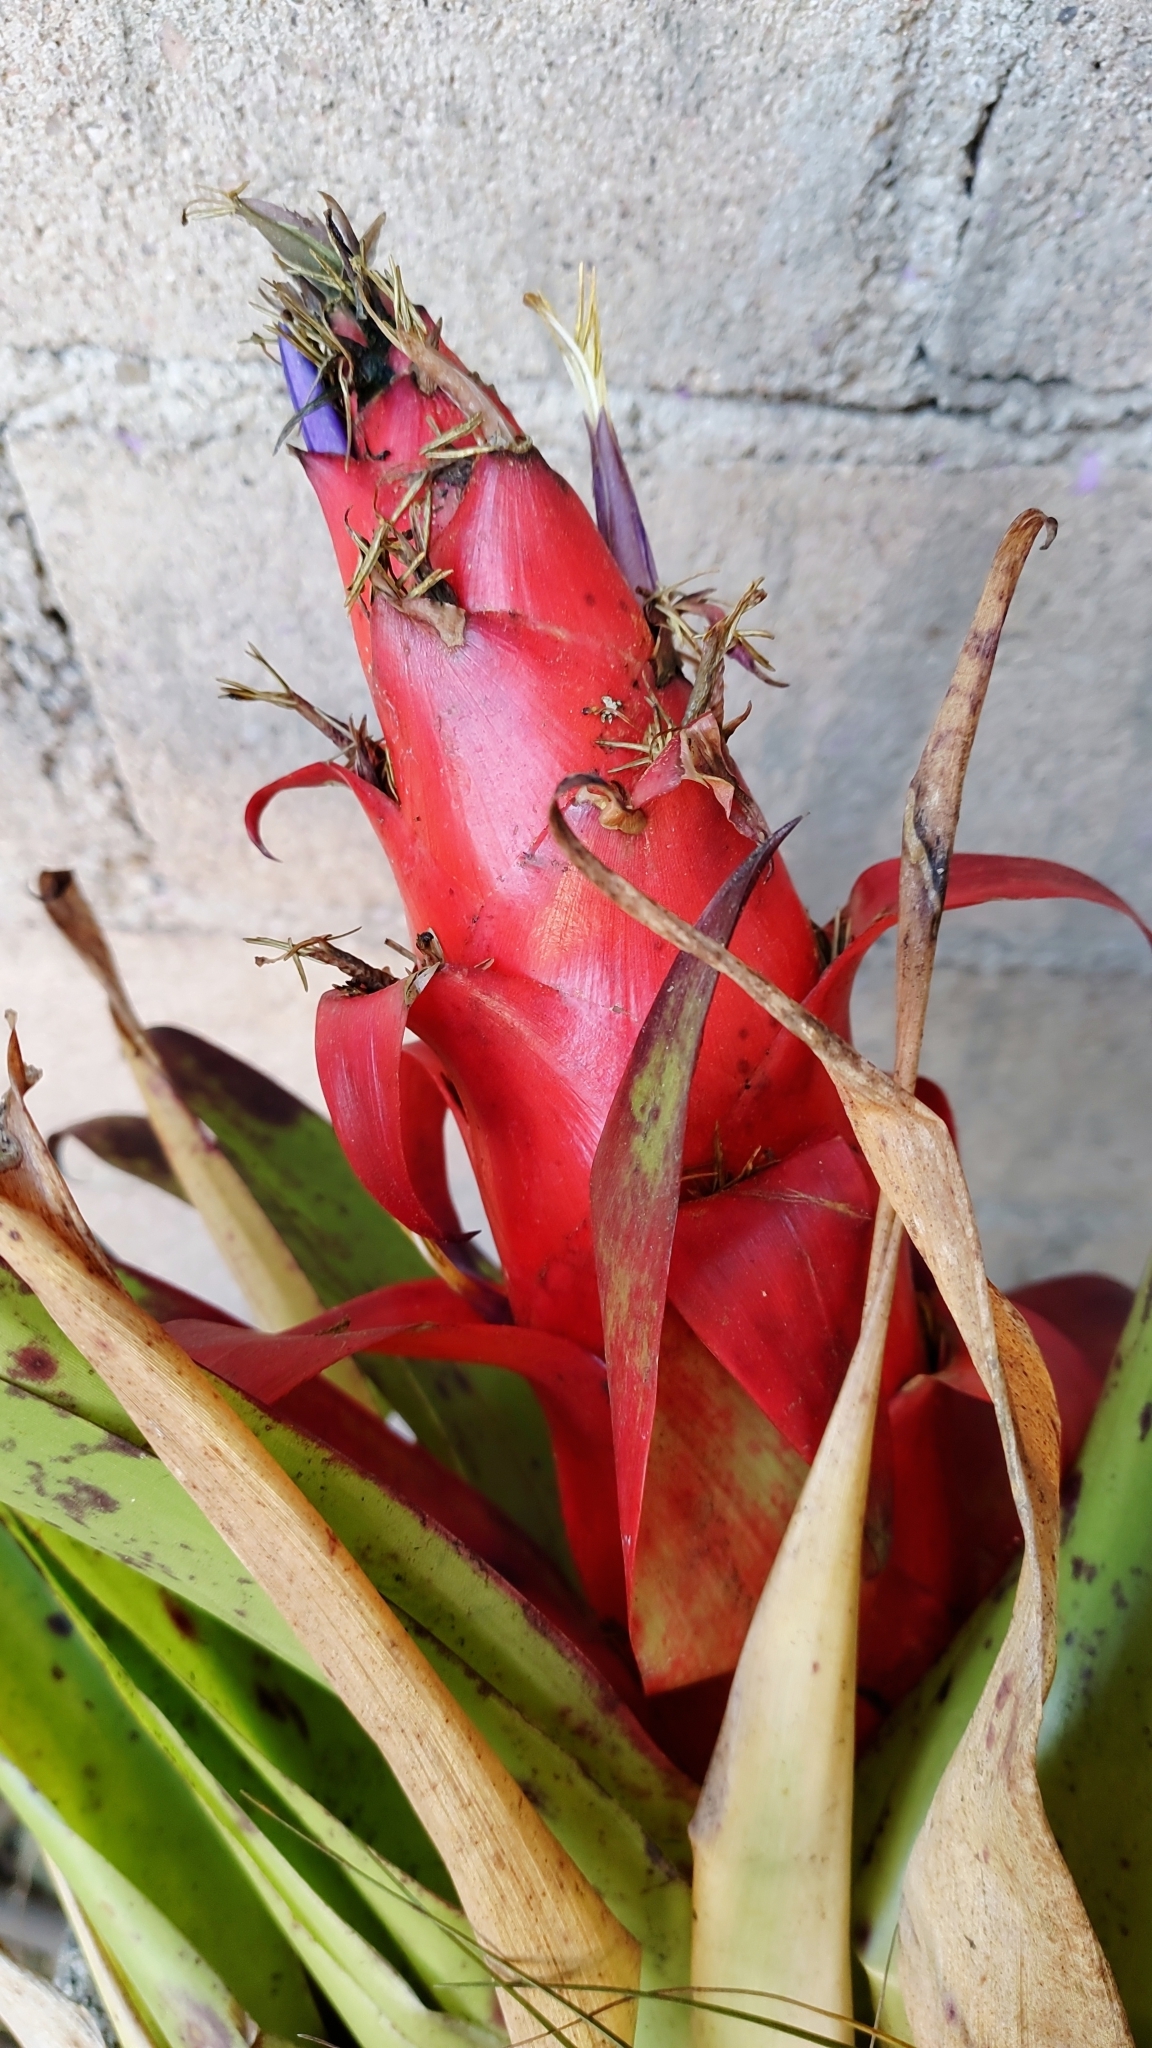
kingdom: Plantae
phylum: Tracheophyta
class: Liliopsida
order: Poales
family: Bromeliaceae
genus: Tillandsia
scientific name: Tillandsia imperialis
